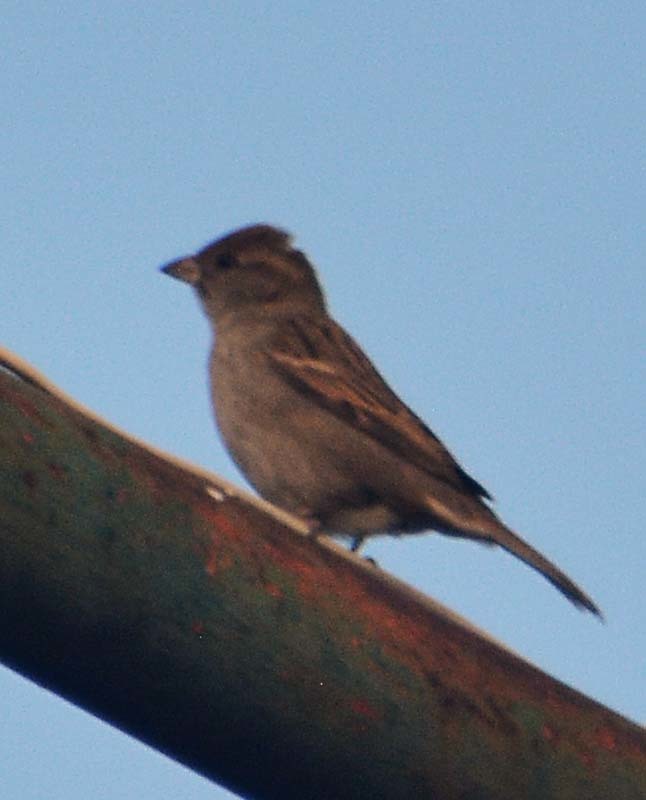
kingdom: Animalia
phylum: Chordata
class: Aves
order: Passeriformes
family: Passeridae
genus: Passer
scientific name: Passer domesticus
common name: House sparrow
